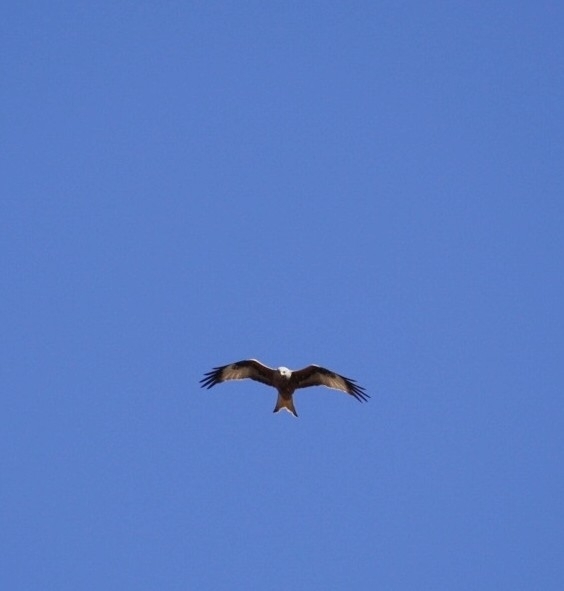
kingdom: Animalia
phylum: Chordata
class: Aves
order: Accipitriformes
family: Accipitridae
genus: Milvus
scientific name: Milvus milvus
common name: Red kite
